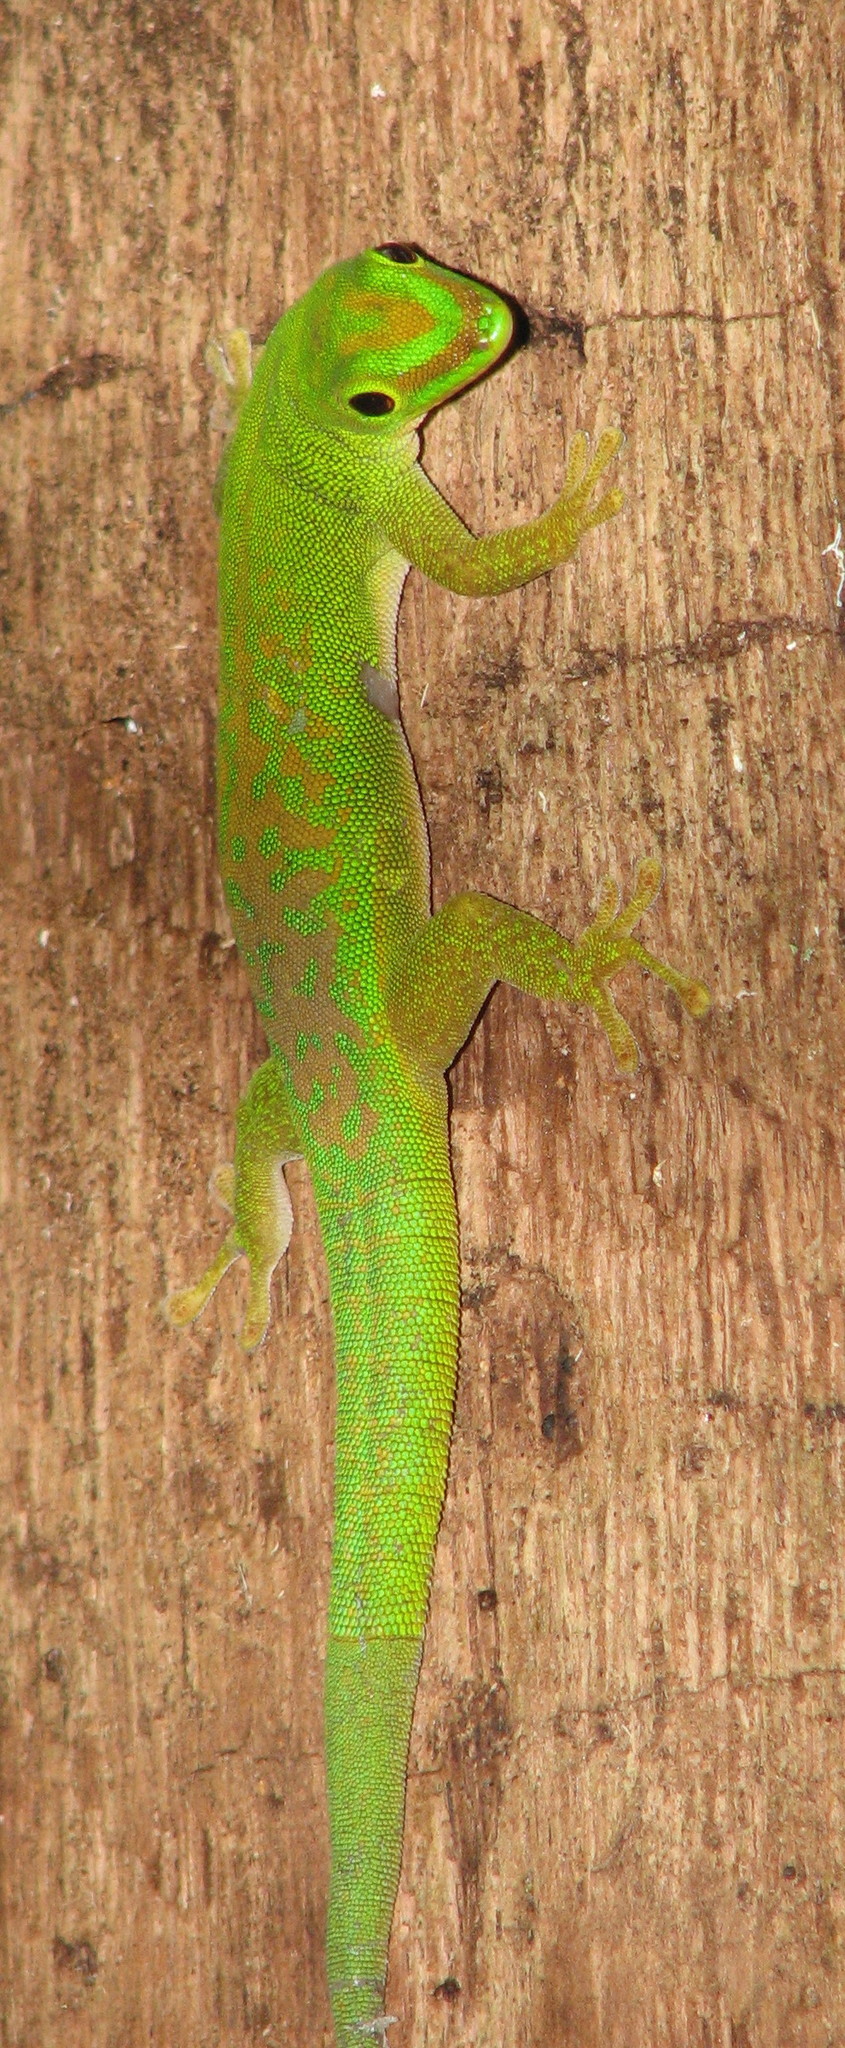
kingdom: Animalia
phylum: Chordata
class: Squamata
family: Gekkonidae
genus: Phelsuma
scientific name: Phelsuma astriata
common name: Seychelles day gecko
